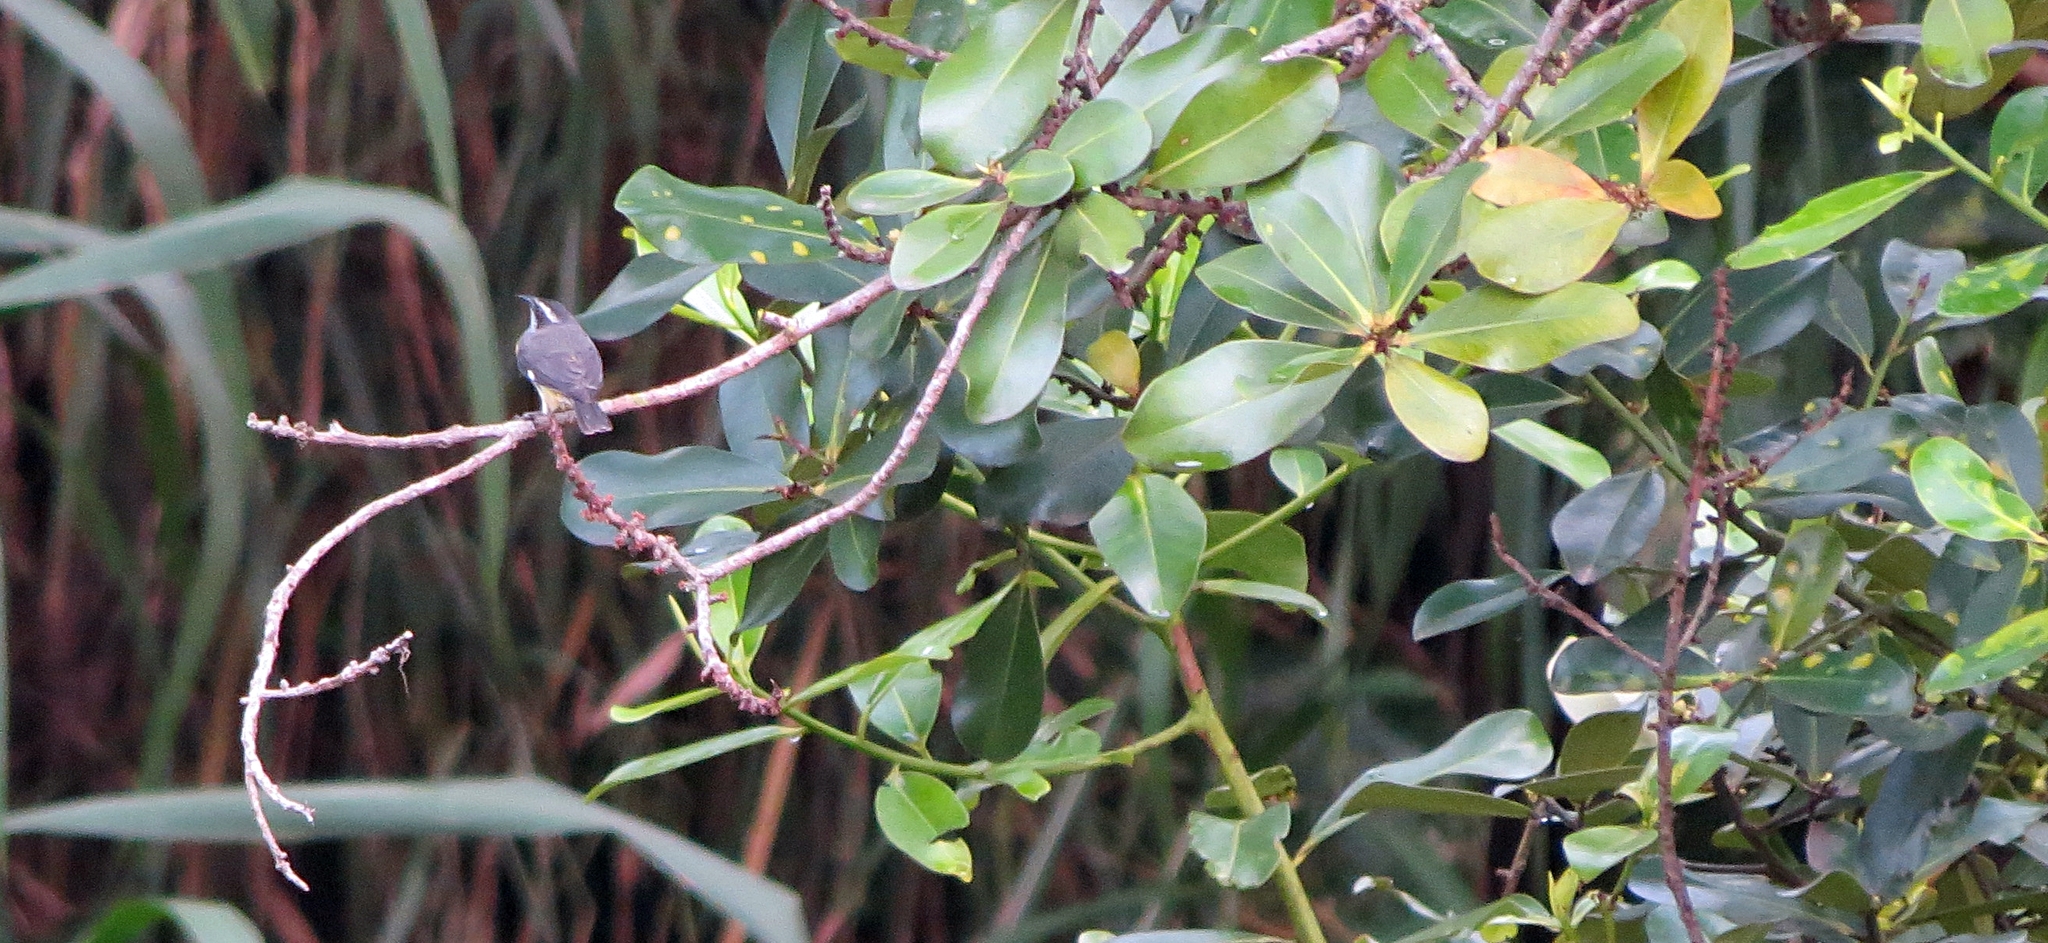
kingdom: Animalia
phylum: Chordata
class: Aves
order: Passeriformes
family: Thraupidae
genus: Coereba
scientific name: Coereba flaveola
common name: Bananaquit
